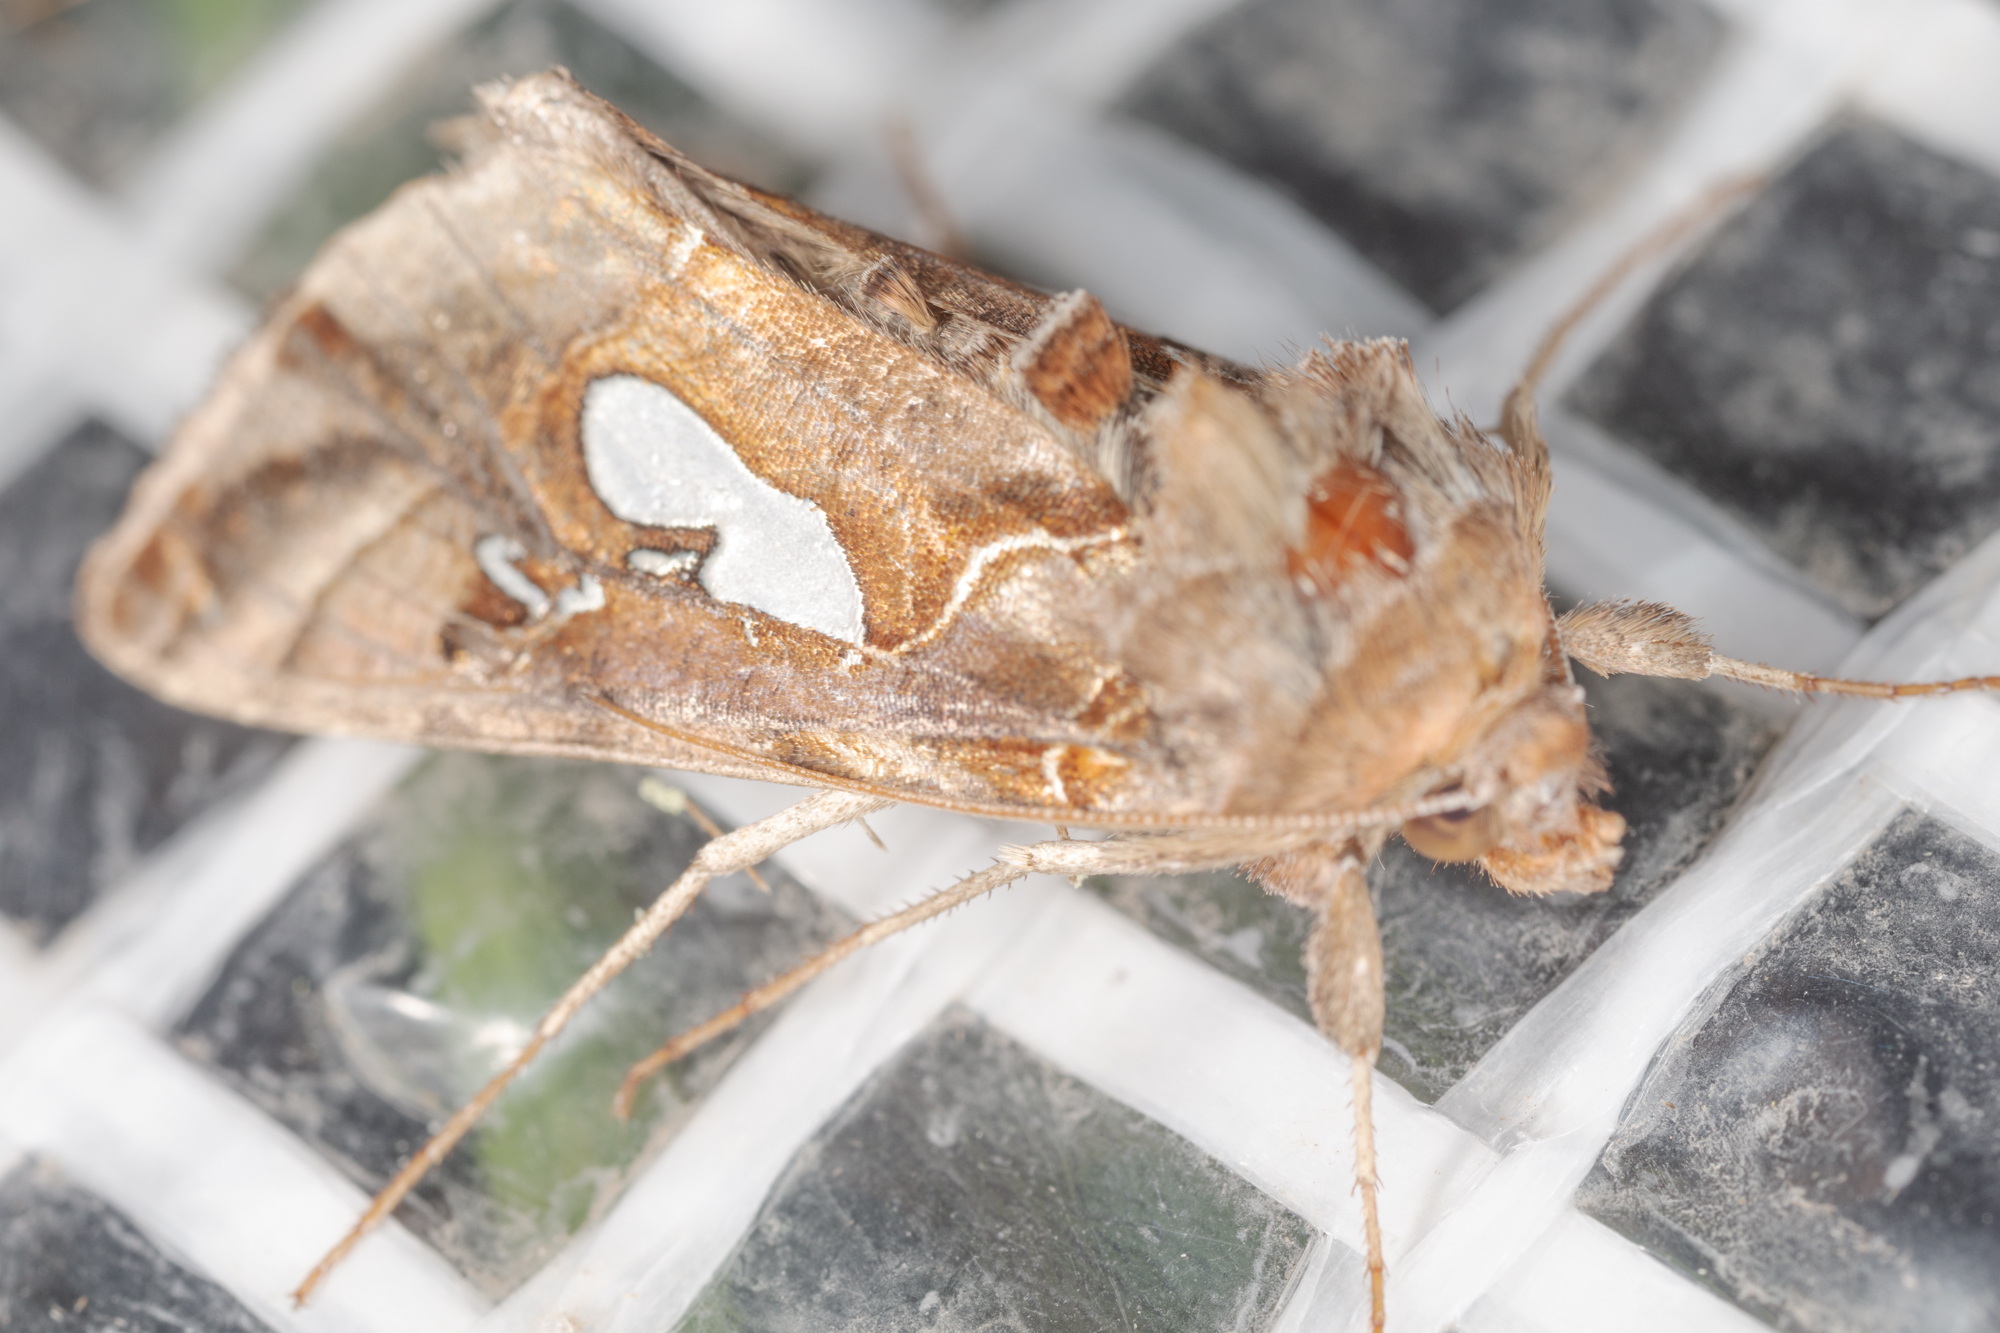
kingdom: Animalia
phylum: Arthropoda
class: Insecta
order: Lepidoptera
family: Noctuidae
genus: Megalographa
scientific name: Megalographa biloba
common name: Cutworm
